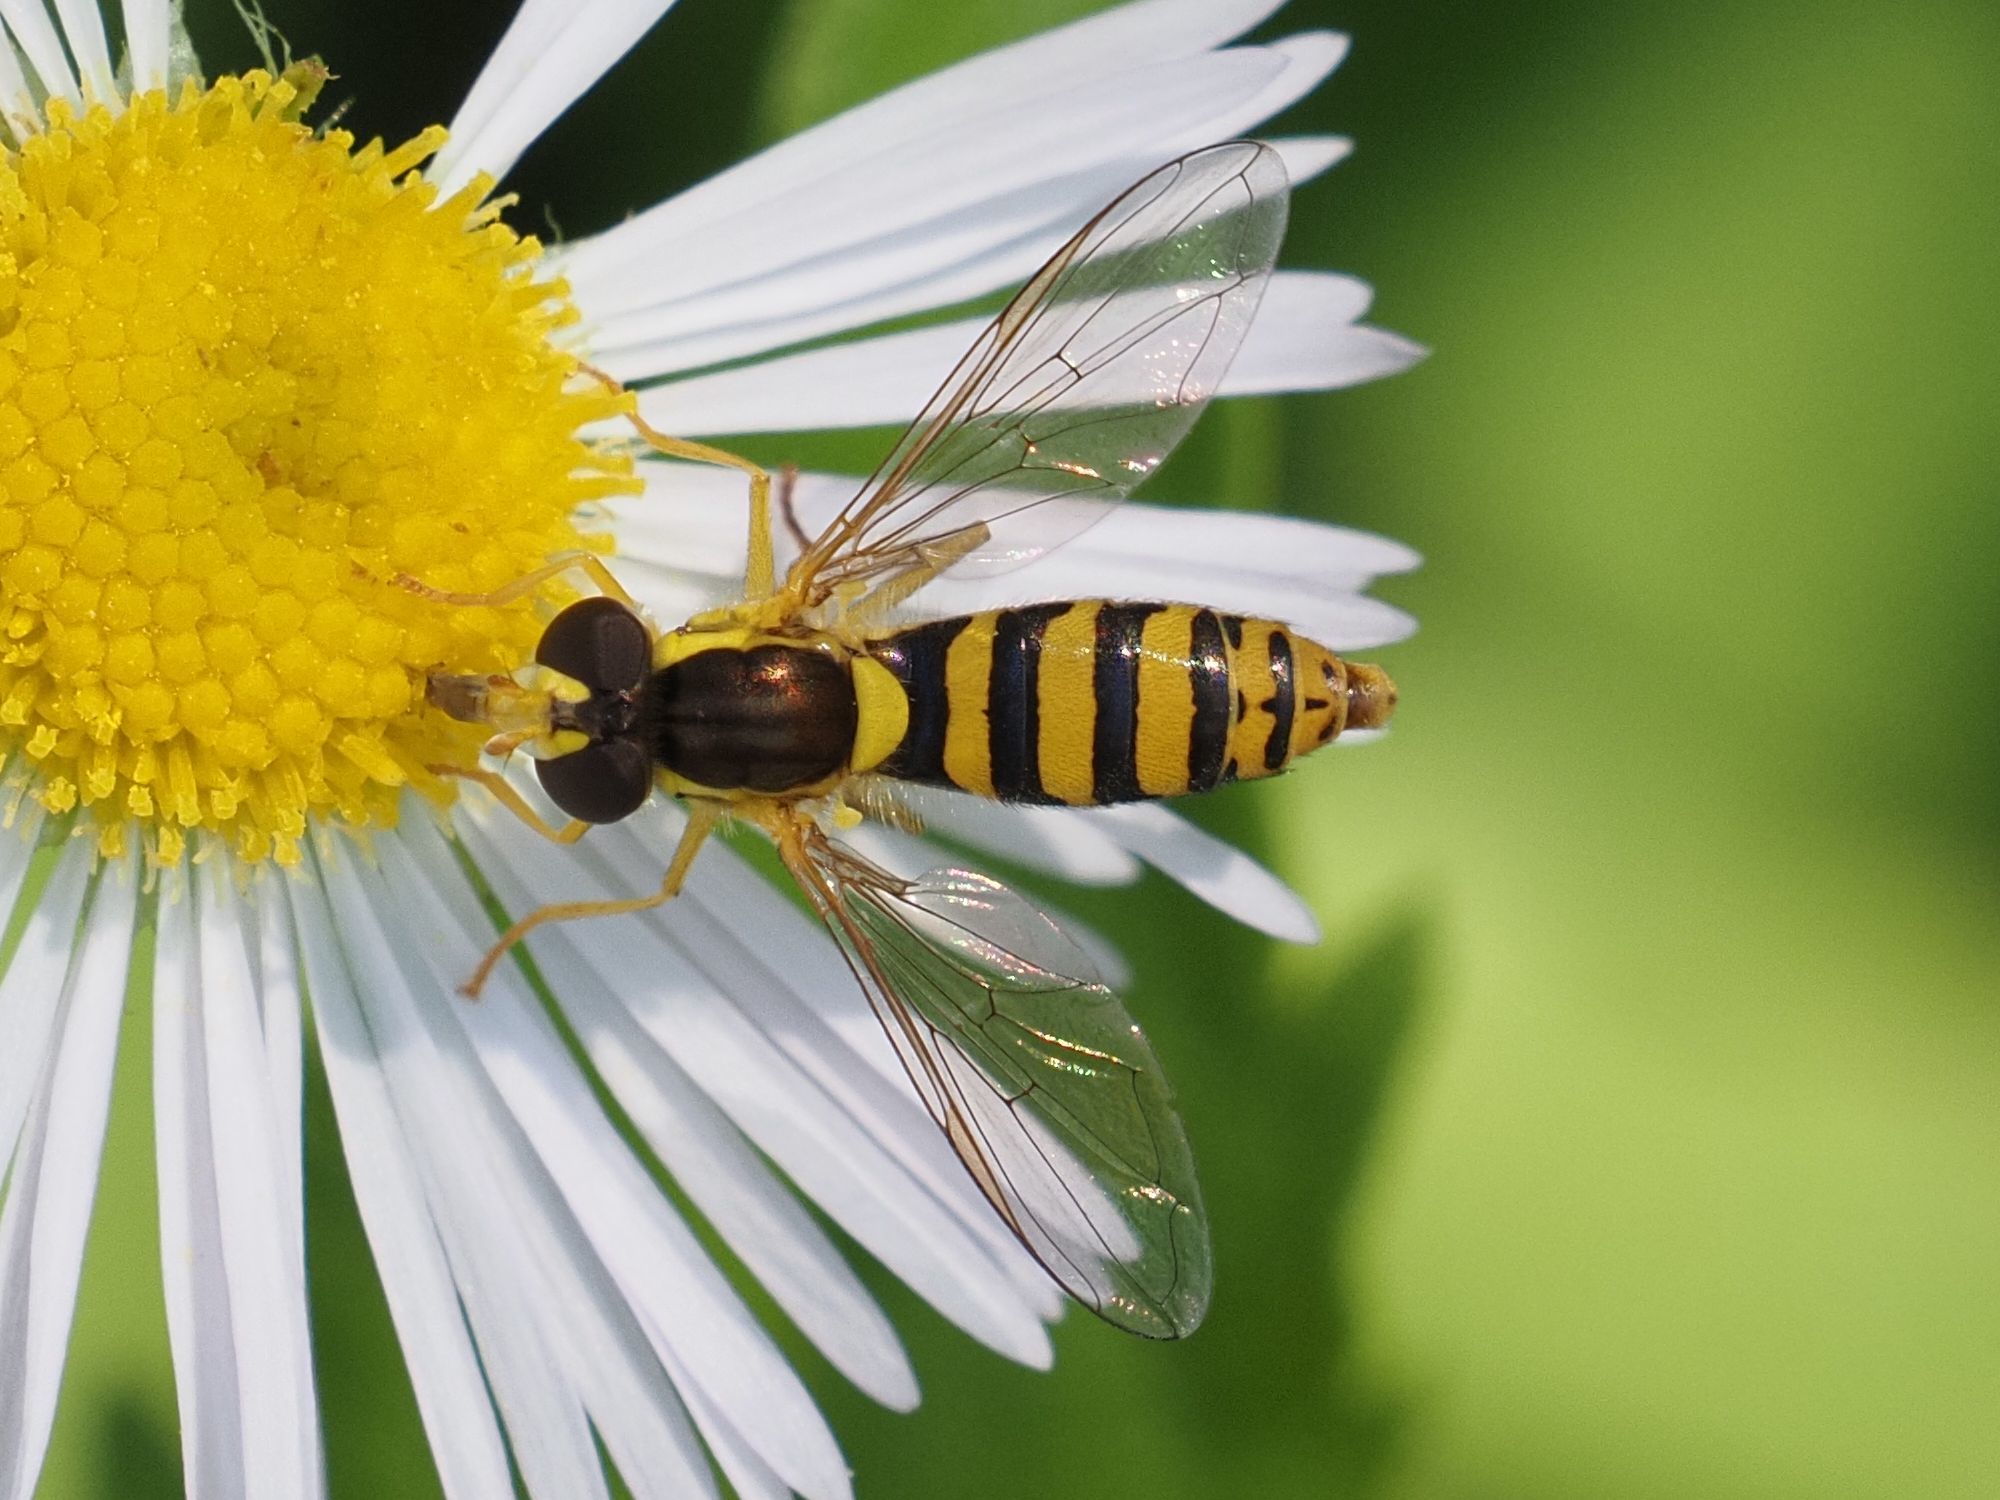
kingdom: Animalia
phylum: Arthropoda
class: Insecta
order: Diptera
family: Syrphidae
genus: Sphaerophoria
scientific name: Sphaerophoria
